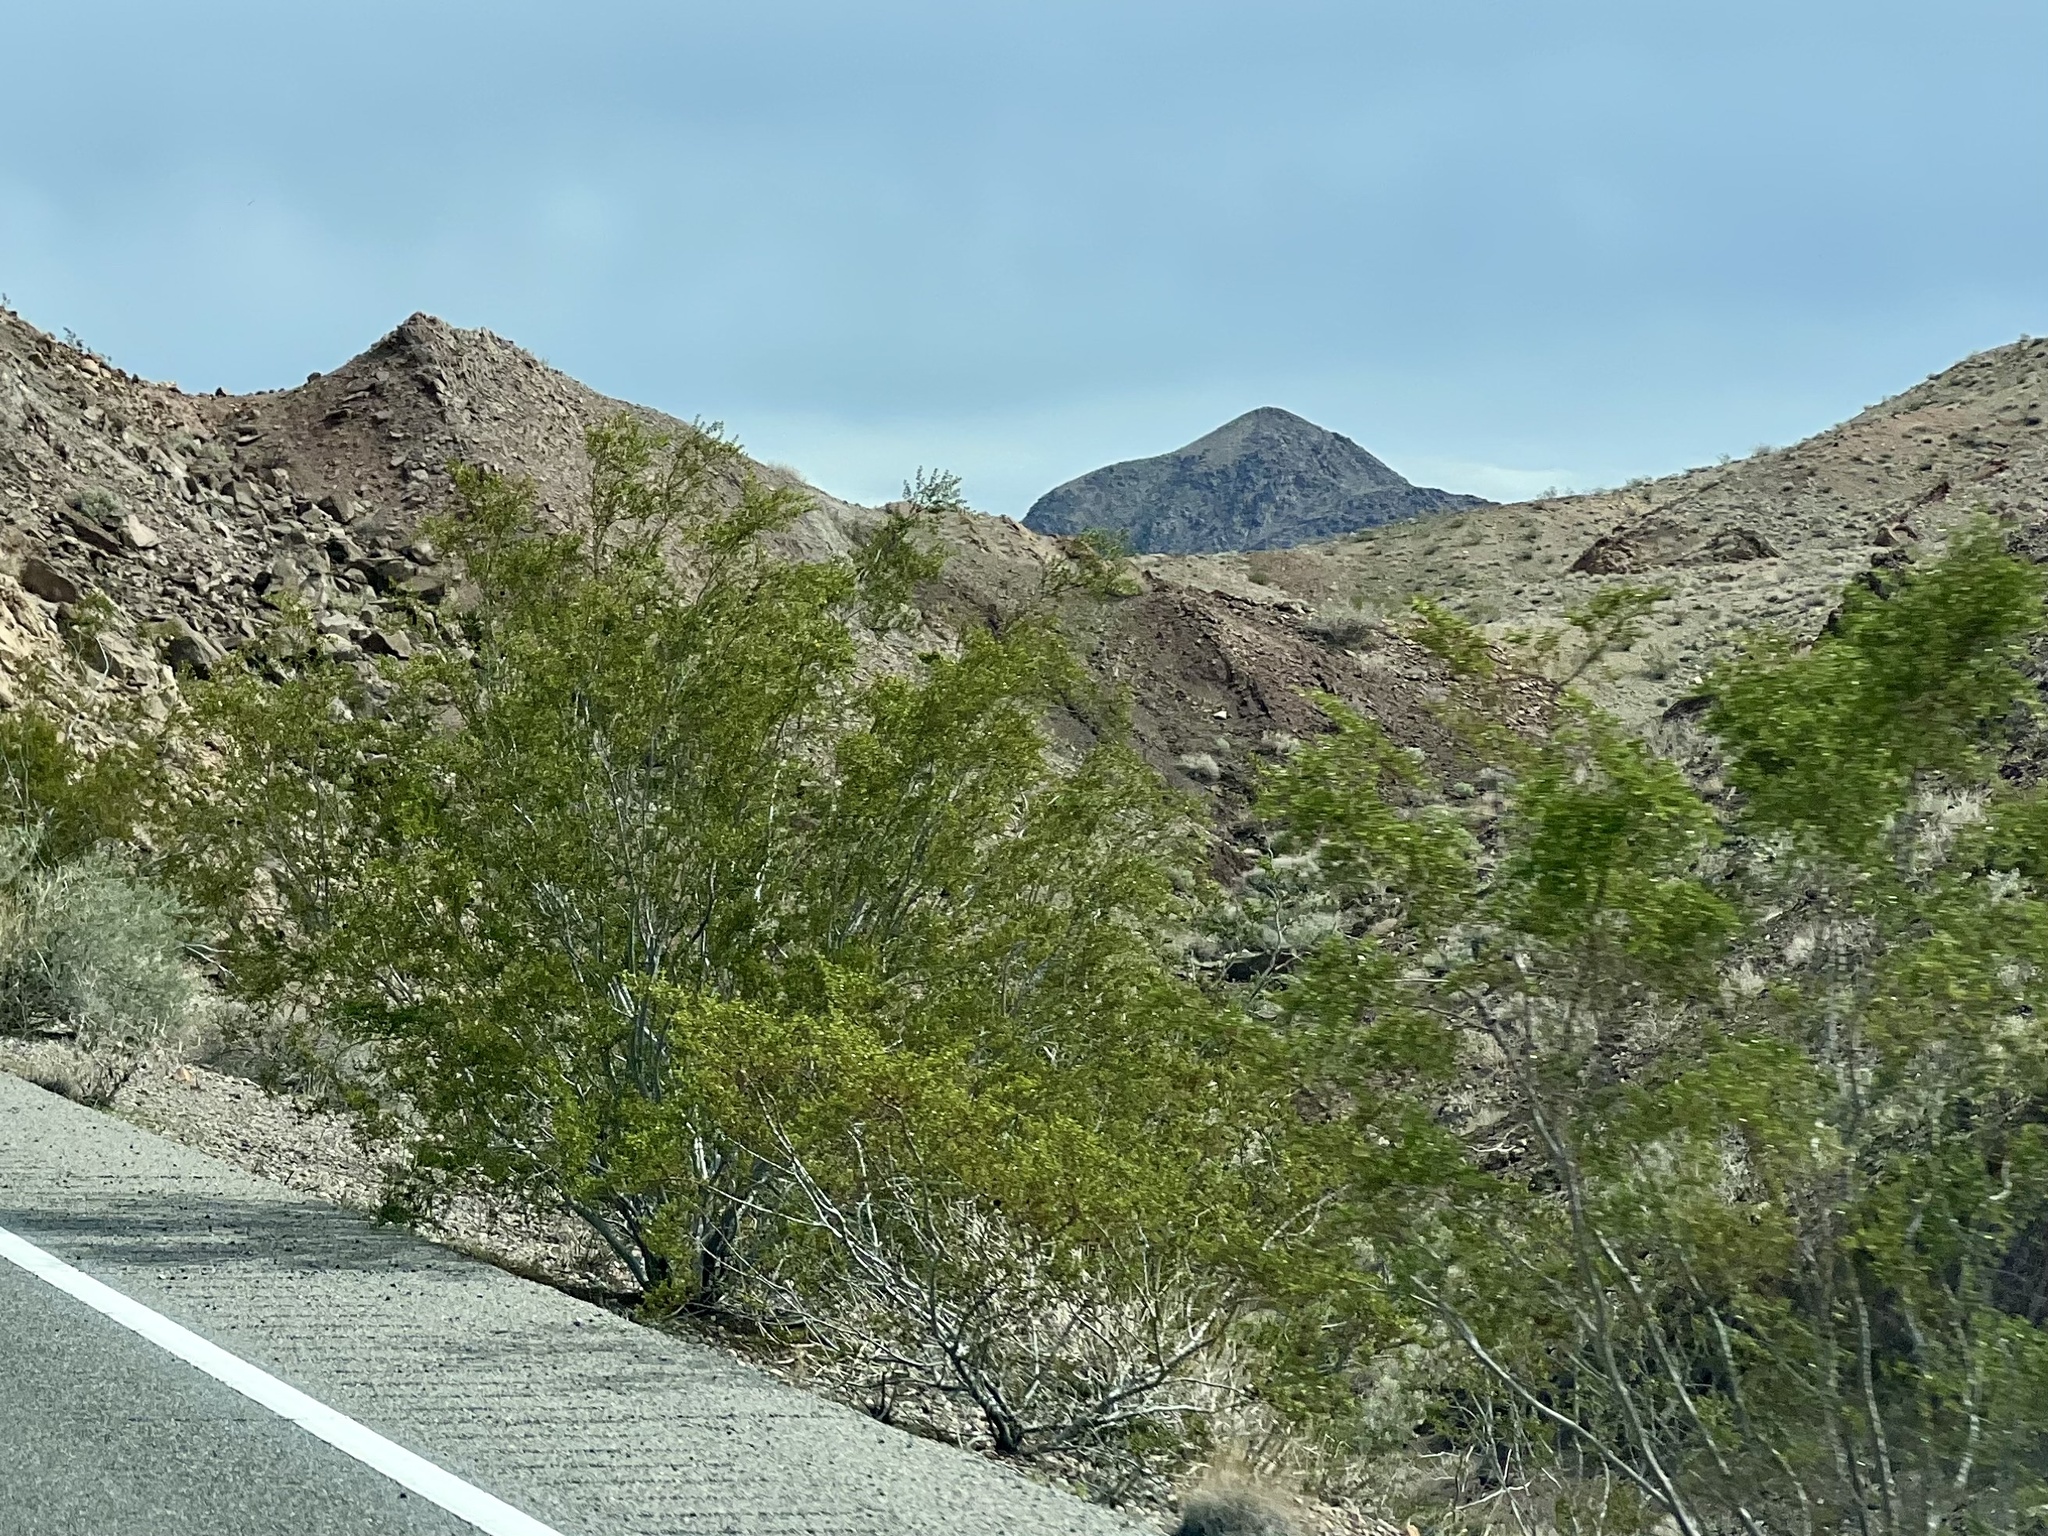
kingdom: Plantae
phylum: Tracheophyta
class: Magnoliopsida
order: Zygophyllales
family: Zygophyllaceae
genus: Larrea
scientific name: Larrea tridentata
